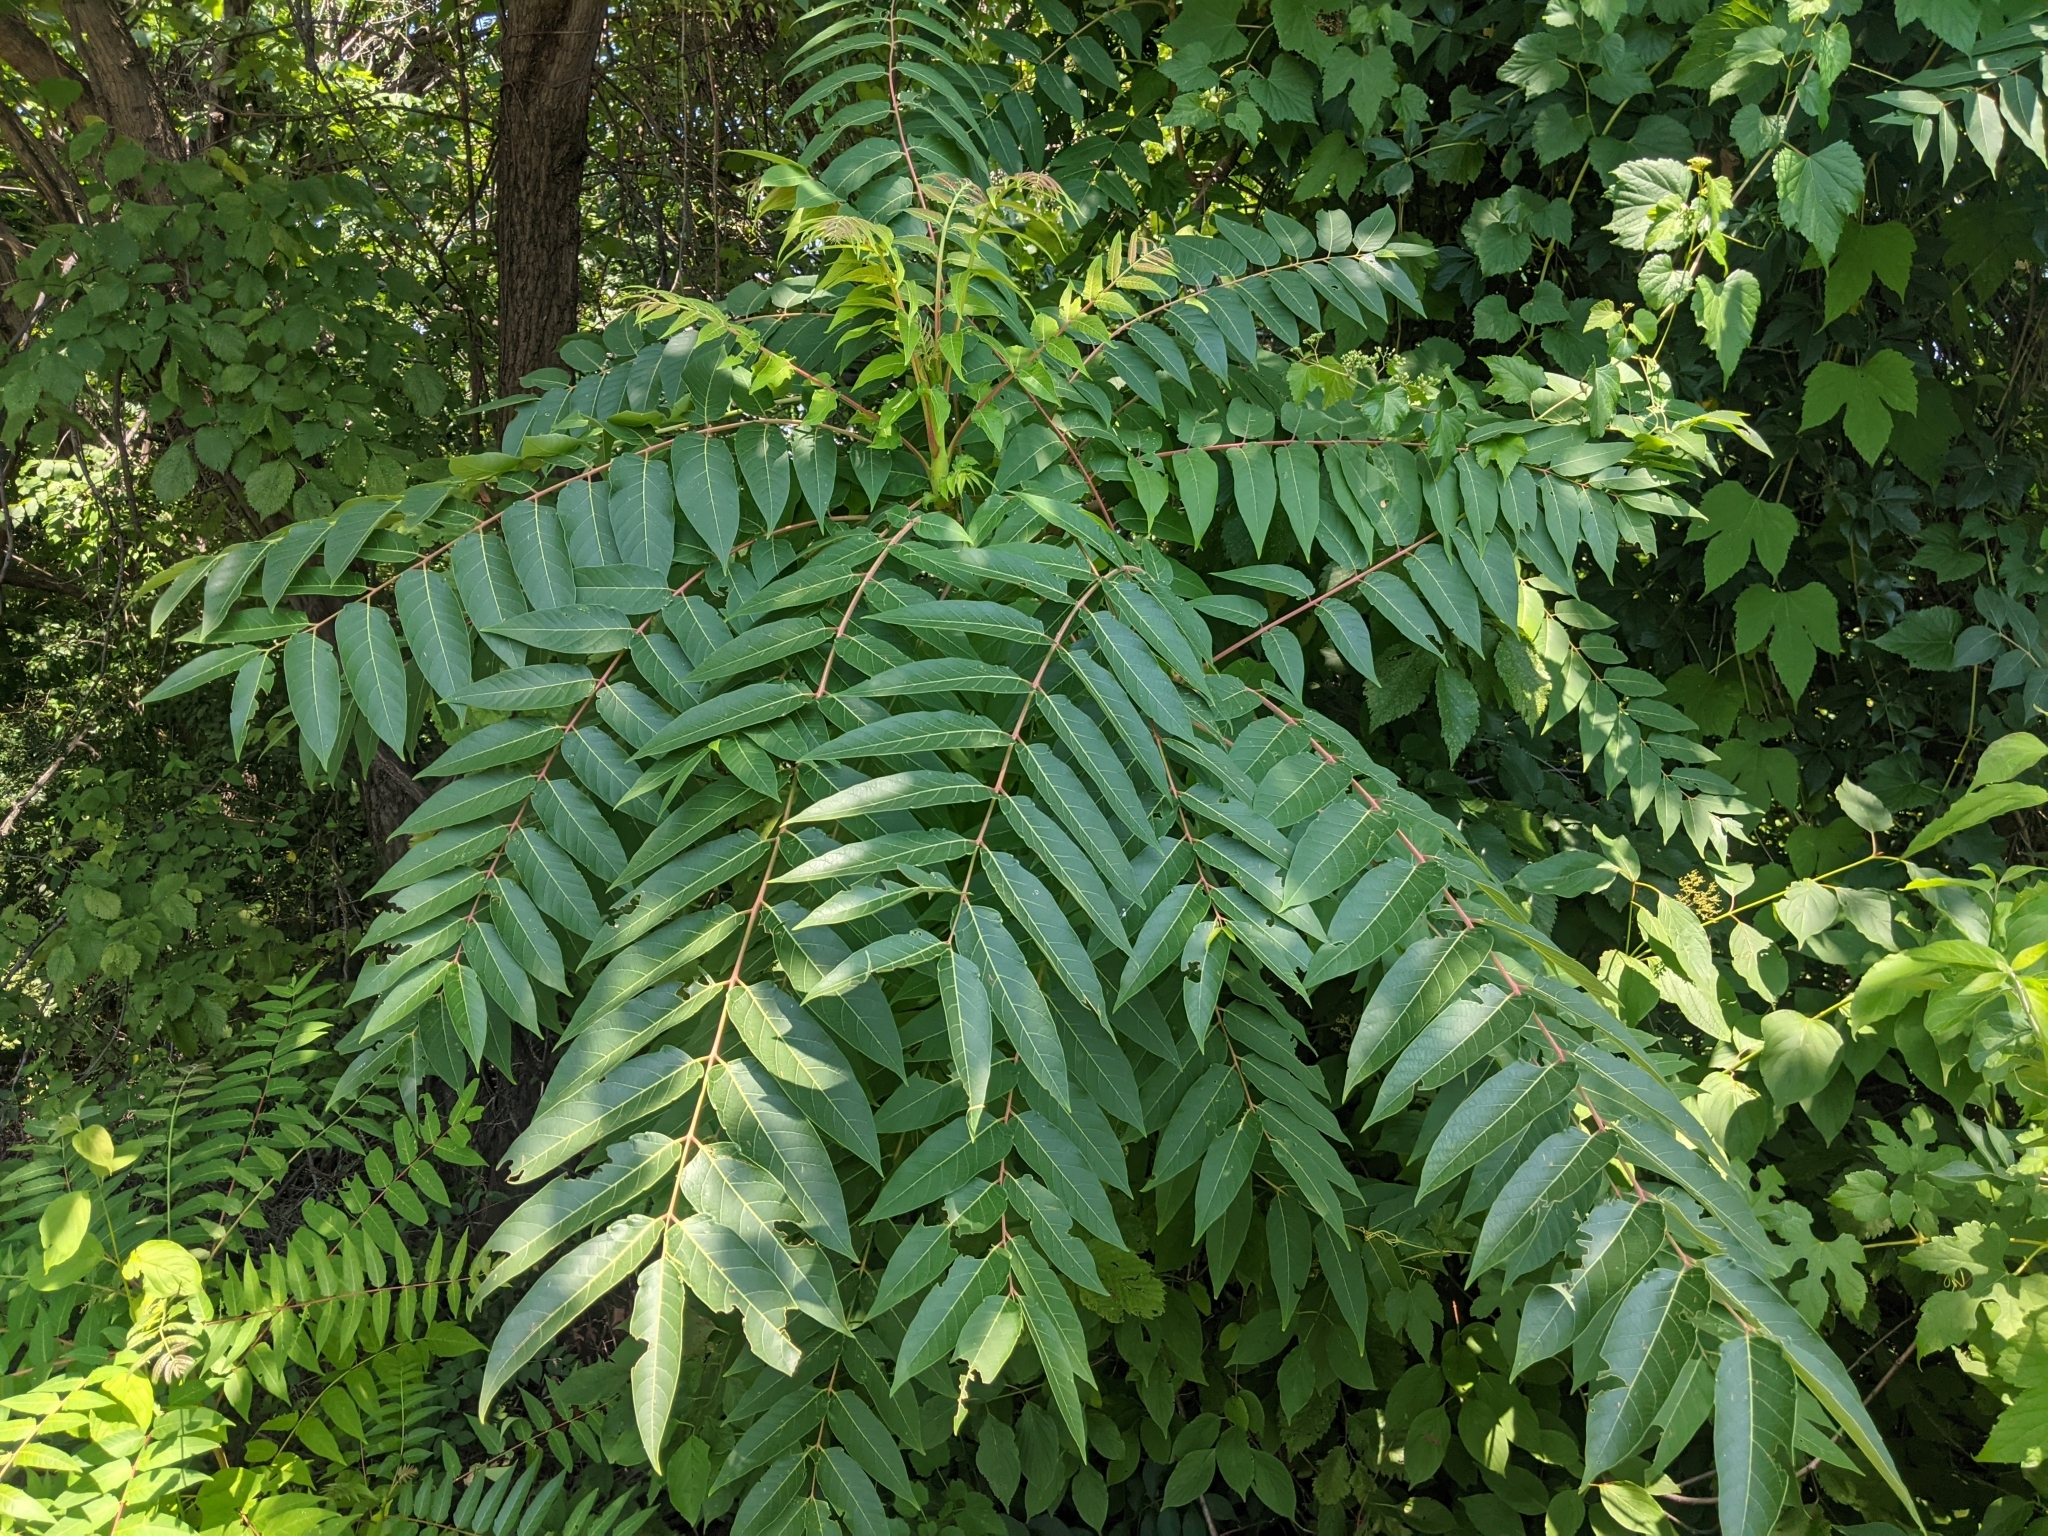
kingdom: Plantae
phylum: Tracheophyta
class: Magnoliopsida
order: Sapindales
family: Simaroubaceae
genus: Ailanthus
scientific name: Ailanthus altissima
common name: Tree-of-heaven
